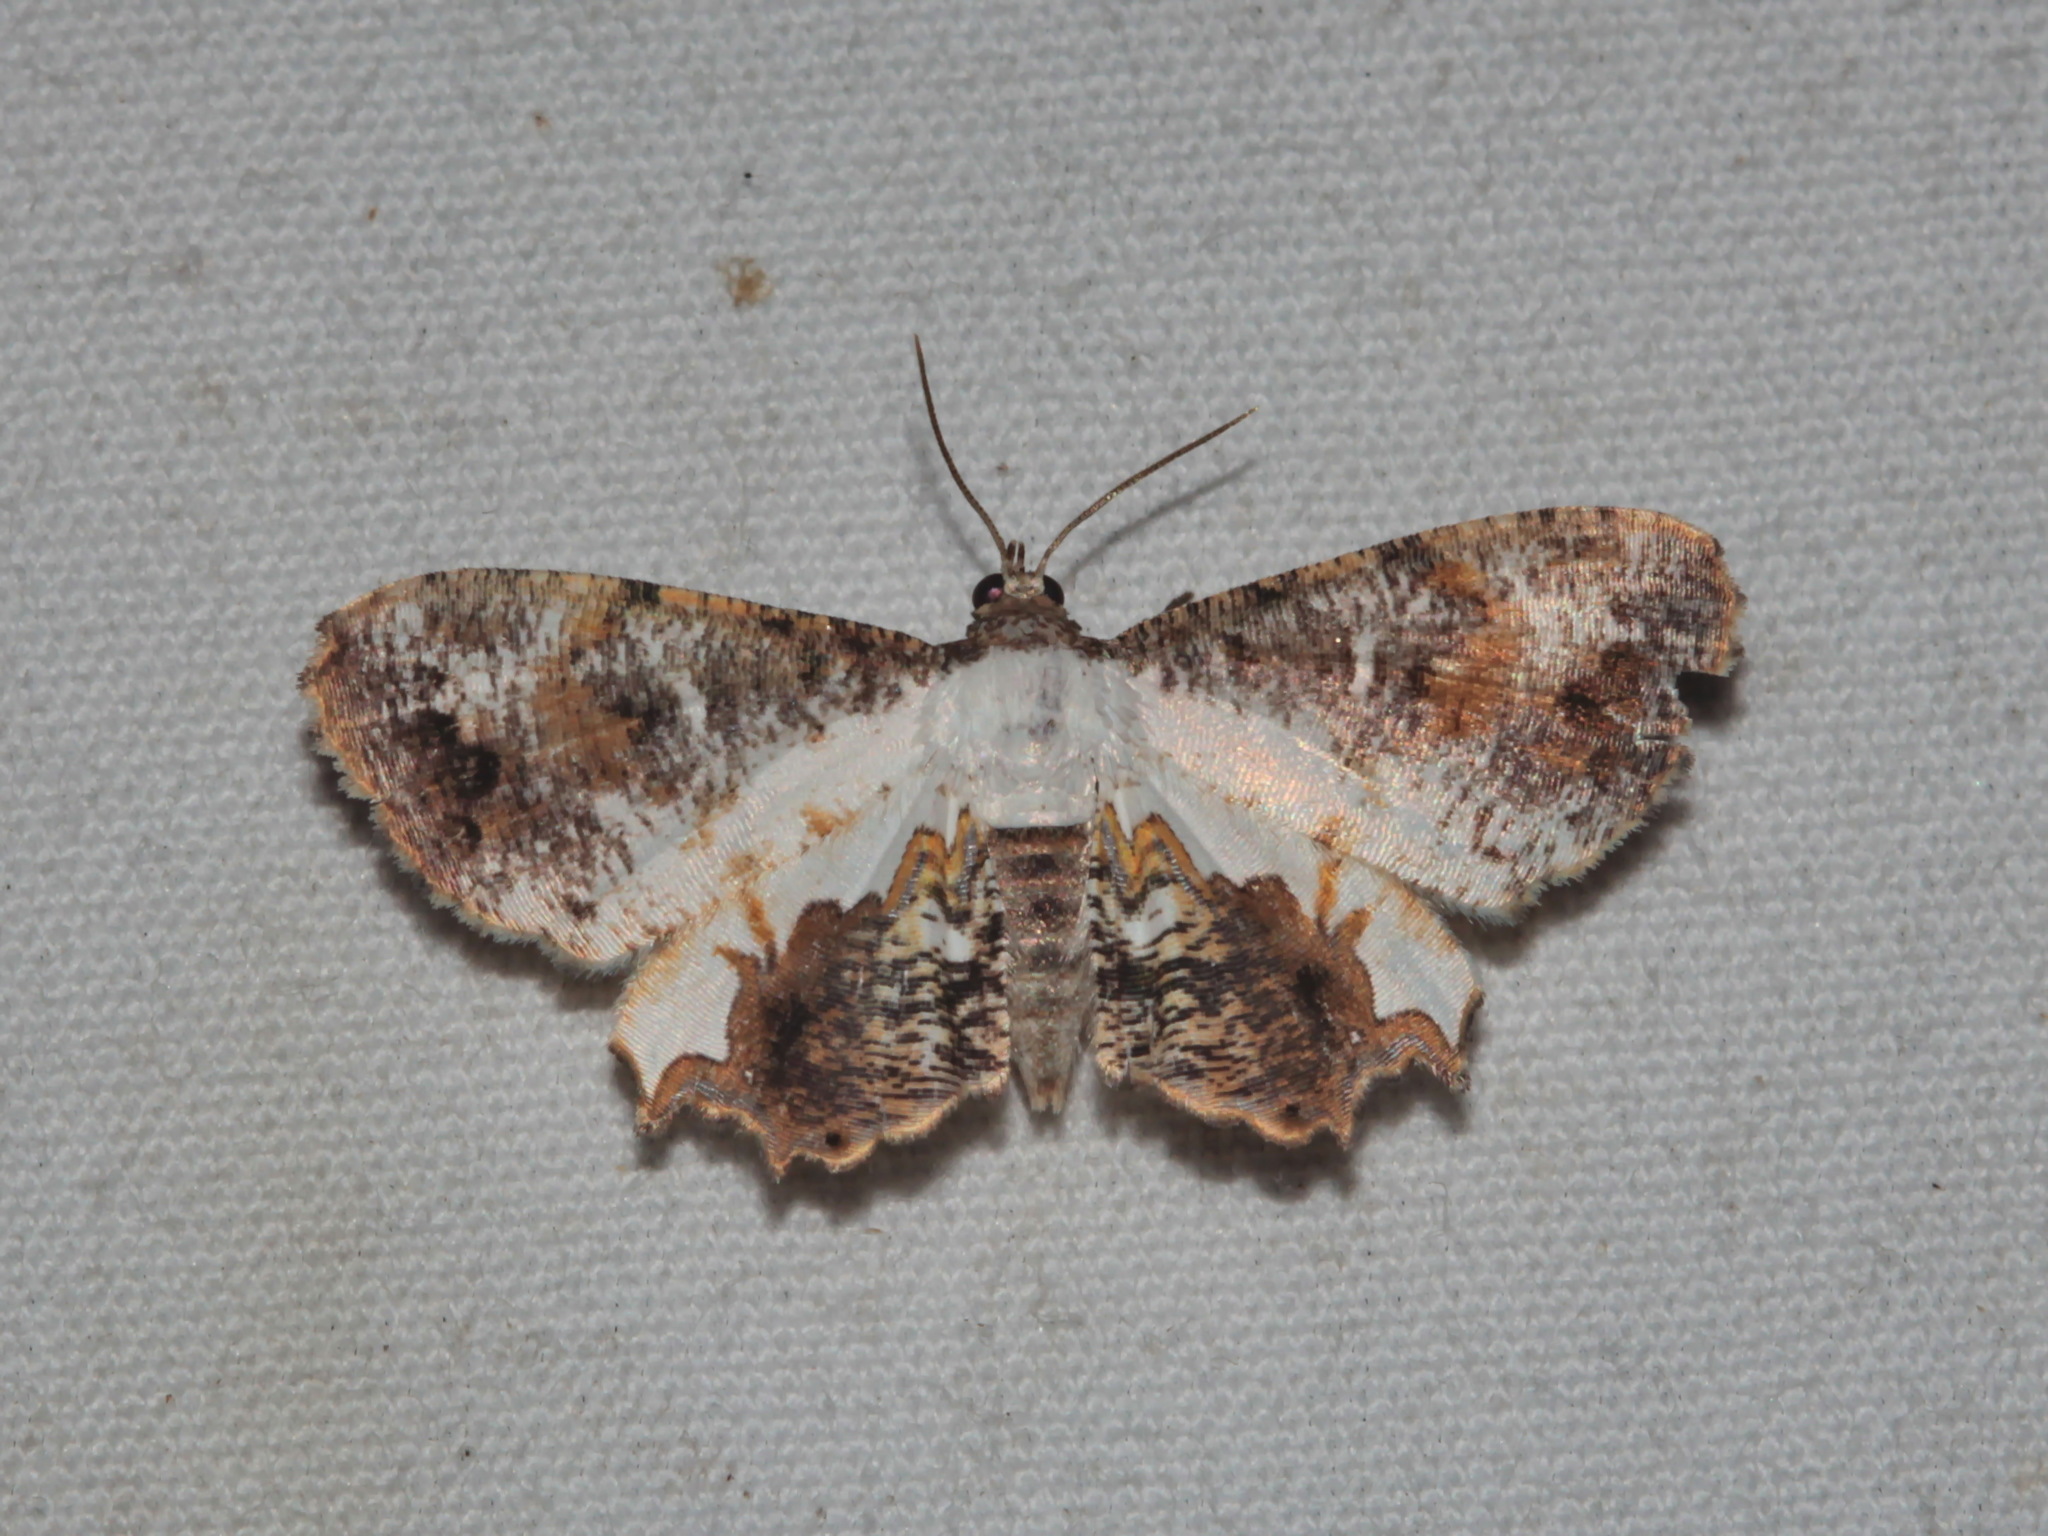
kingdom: Animalia
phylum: Arthropoda
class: Insecta
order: Lepidoptera
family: Uraniidae
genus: Europlema
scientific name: Europlema poecilaria
